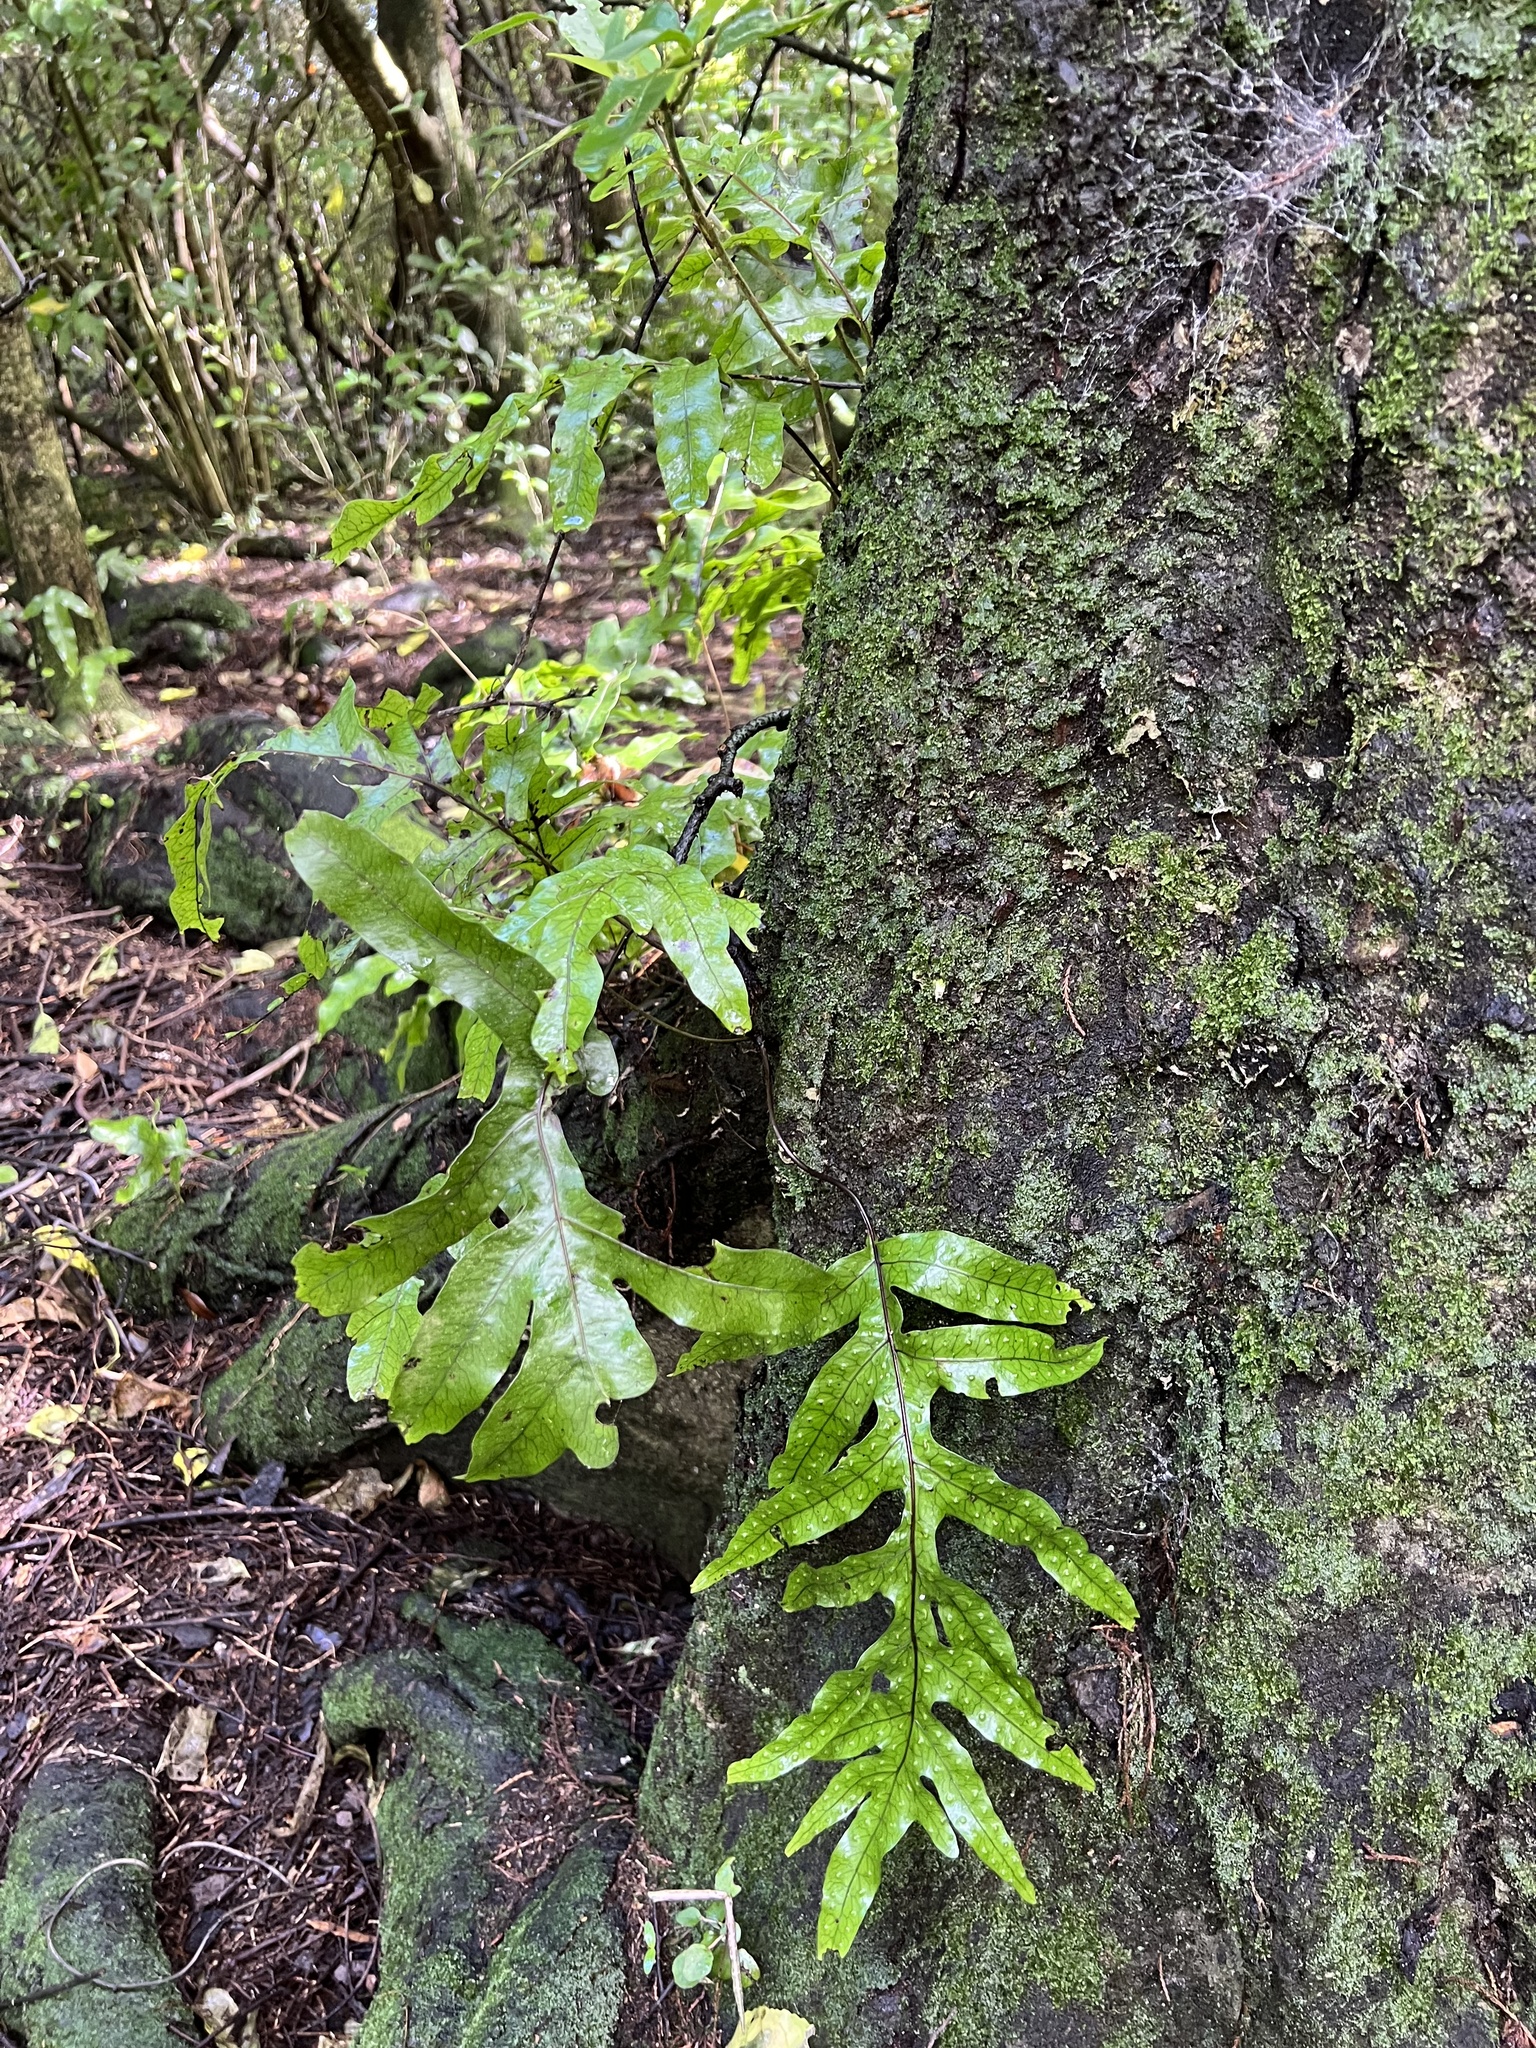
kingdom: Plantae
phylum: Tracheophyta
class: Polypodiopsida
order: Polypodiales
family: Polypodiaceae
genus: Lecanopteris
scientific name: Lecanopteris pustulata
